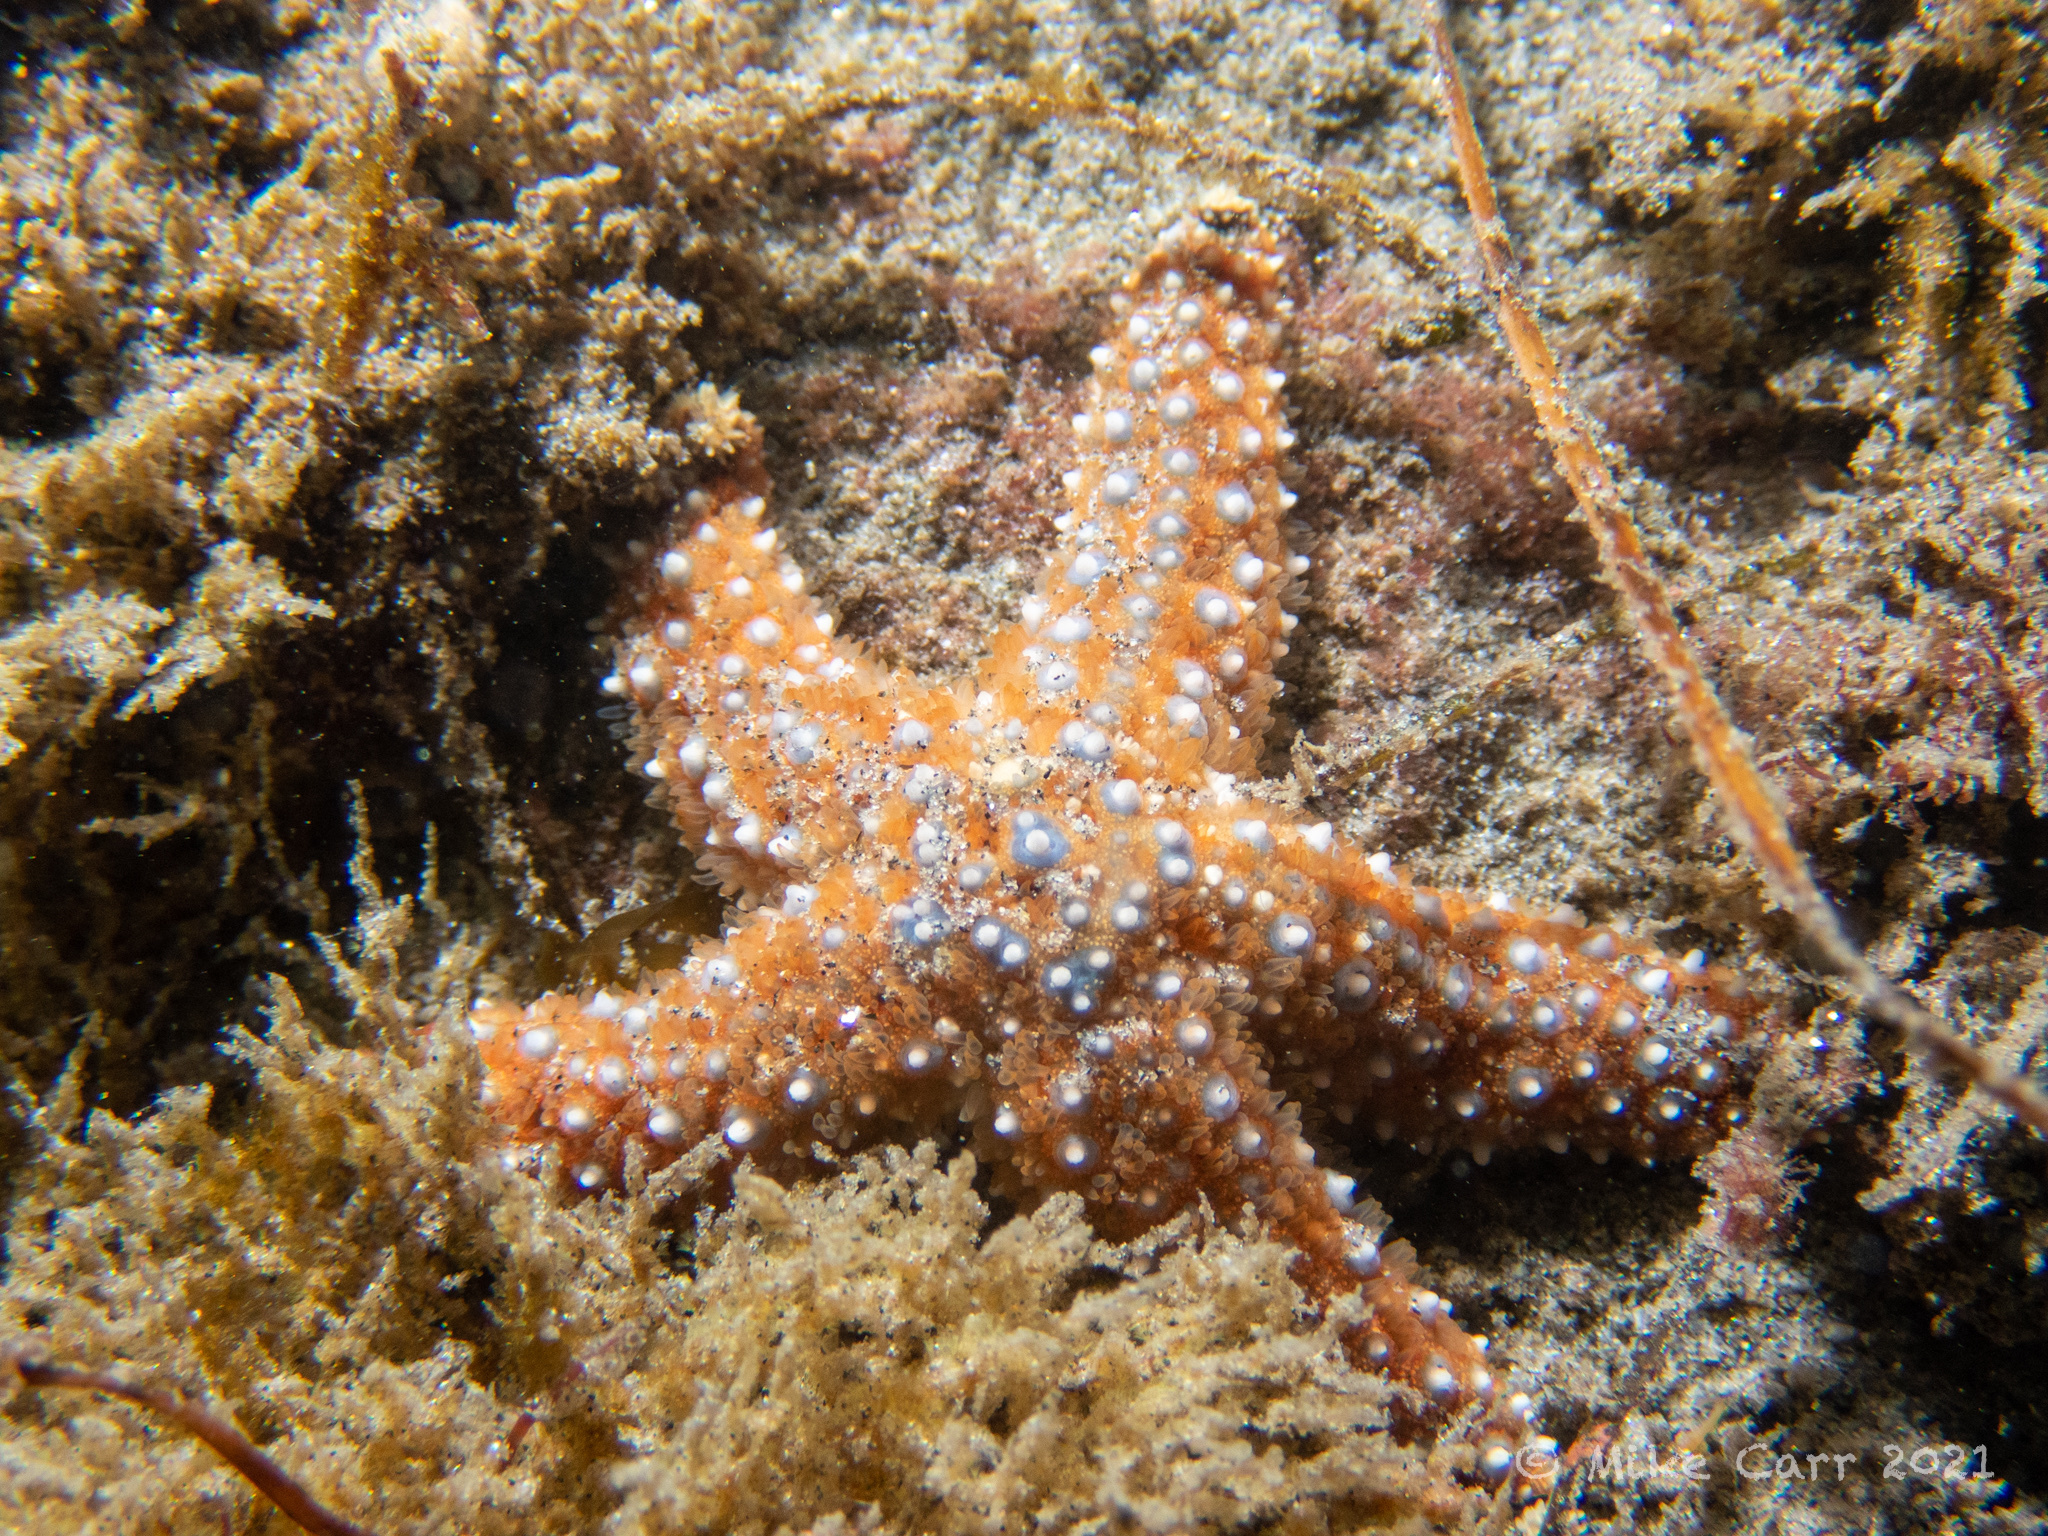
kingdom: Animalia
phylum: Echinodermata
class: Asteroidea
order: Forcipulatida
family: Asteriidae
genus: Pisaster
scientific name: Pisaster giganteus
